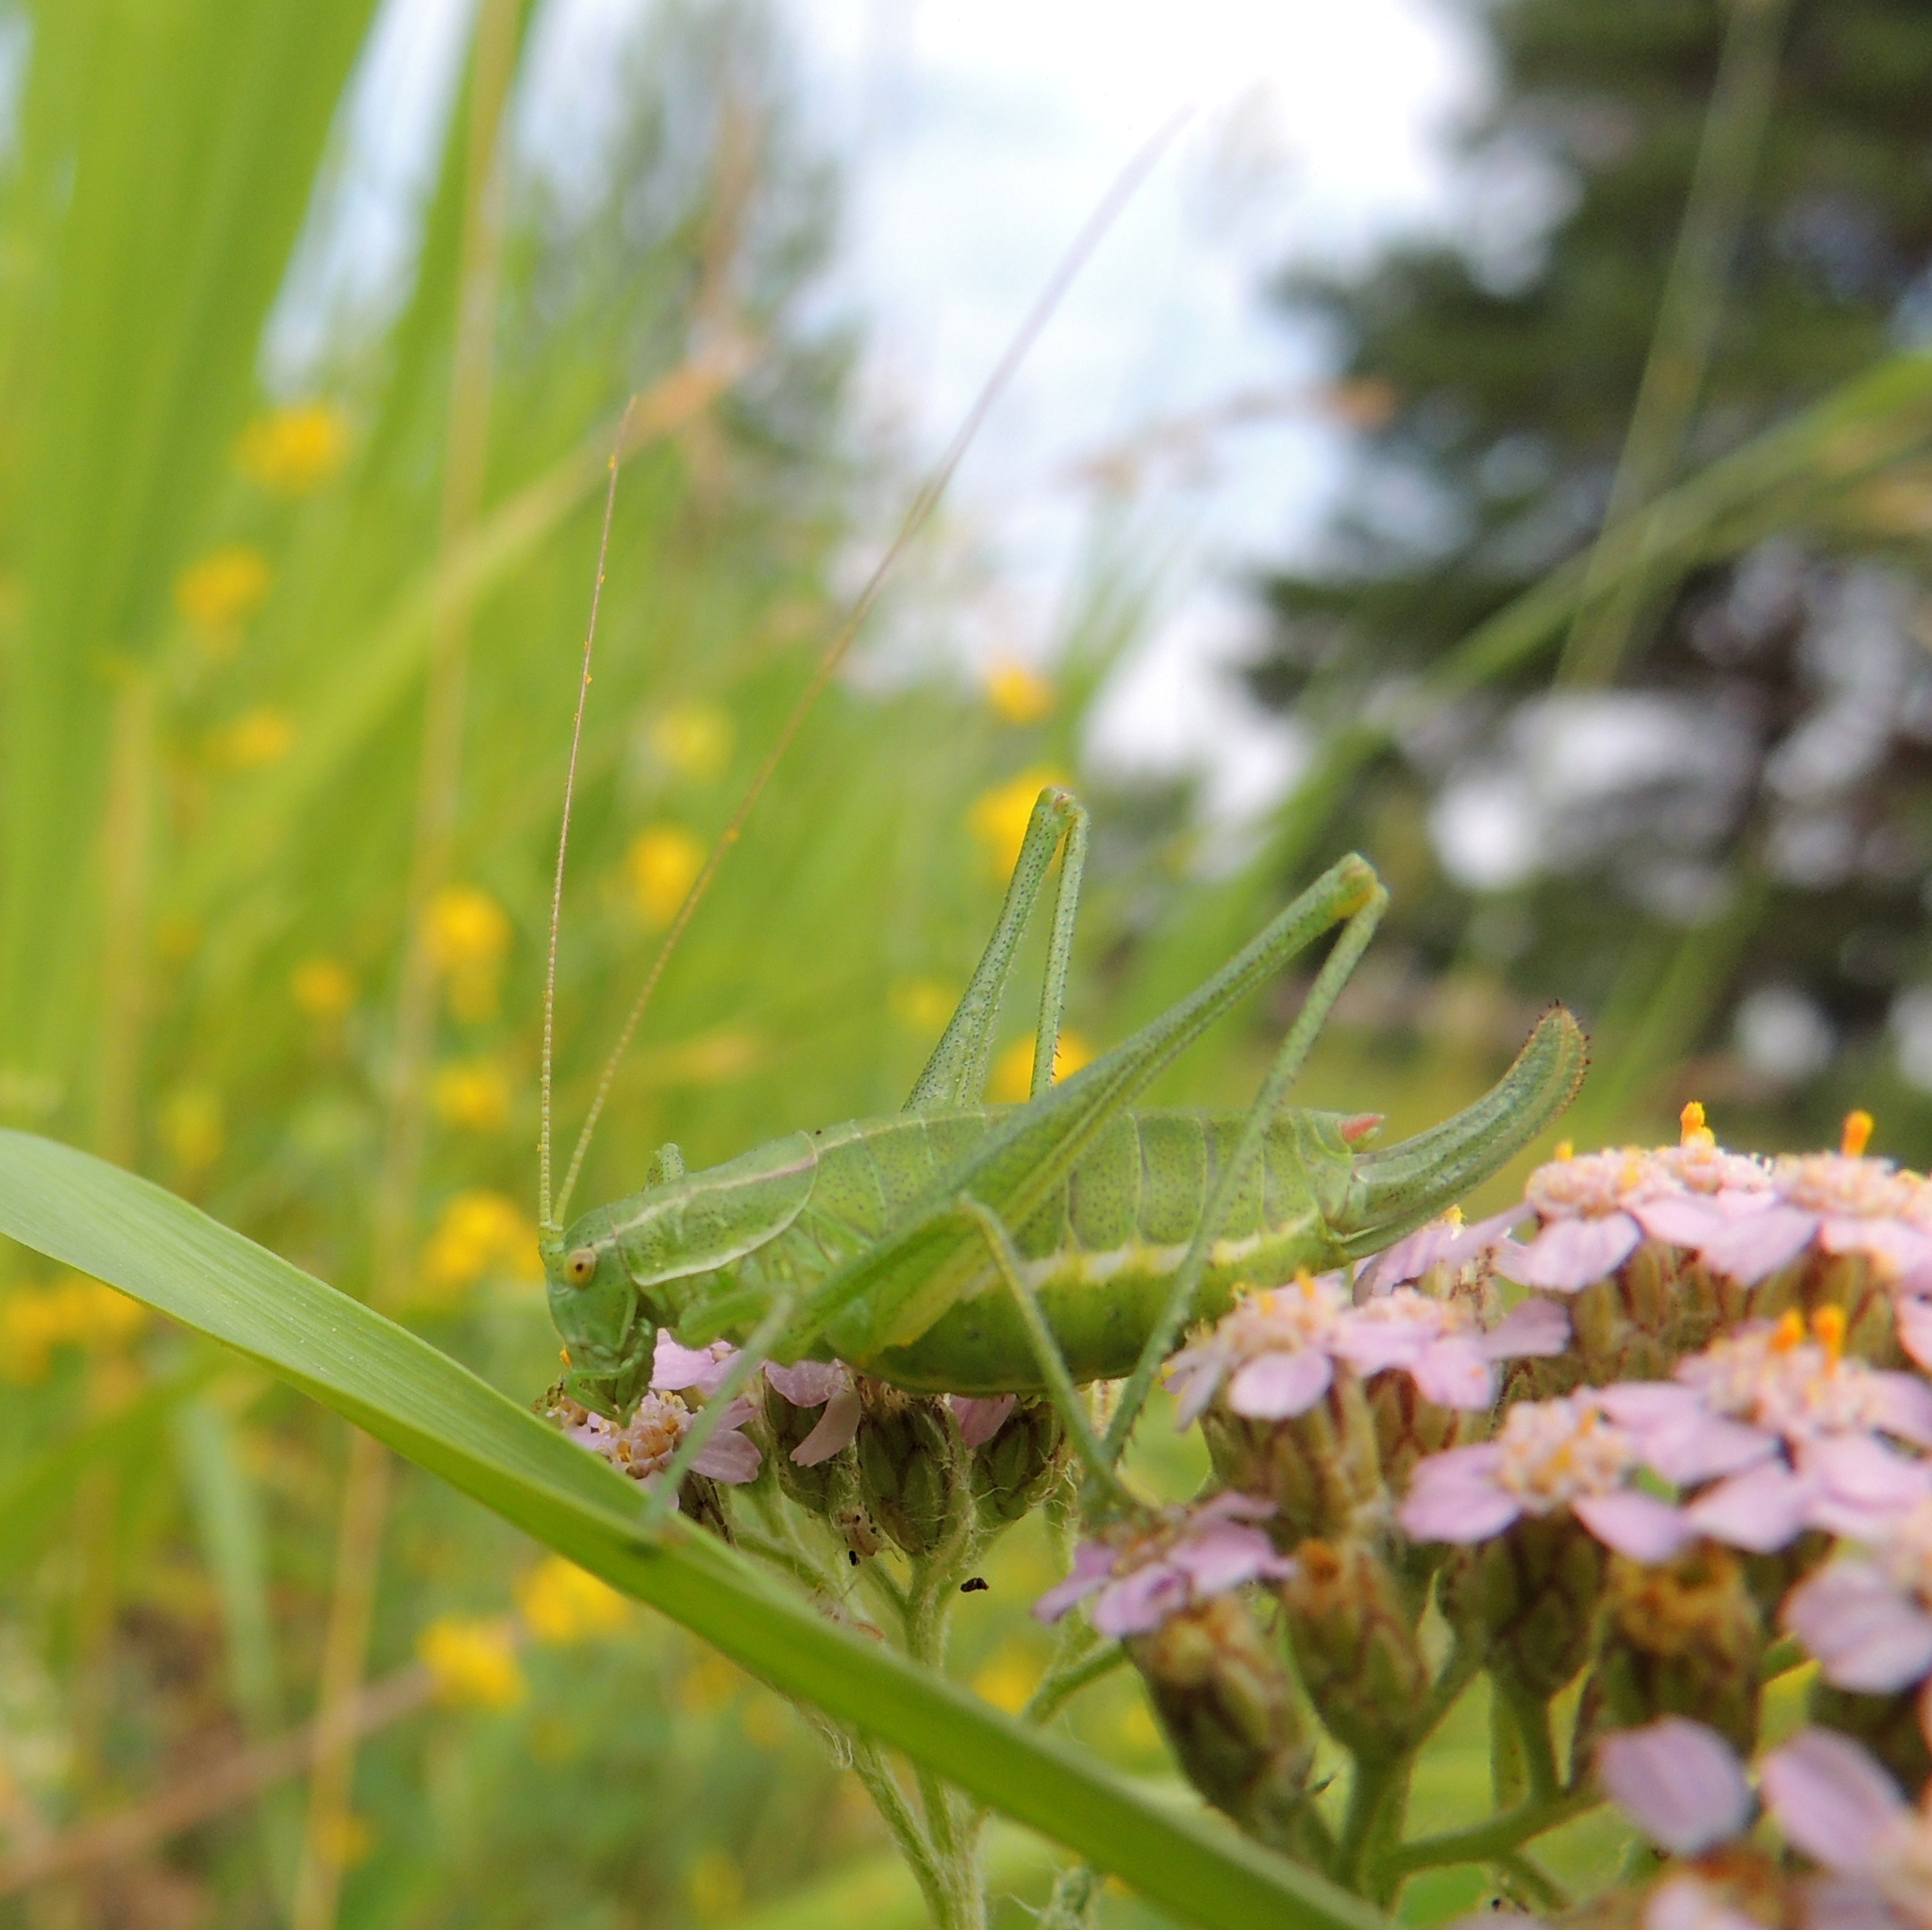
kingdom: Animalia
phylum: Arthropoda
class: Insecta
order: Orthoptera
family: Tettigoniidae
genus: Poecilimon
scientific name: Poecilimon intermedius
